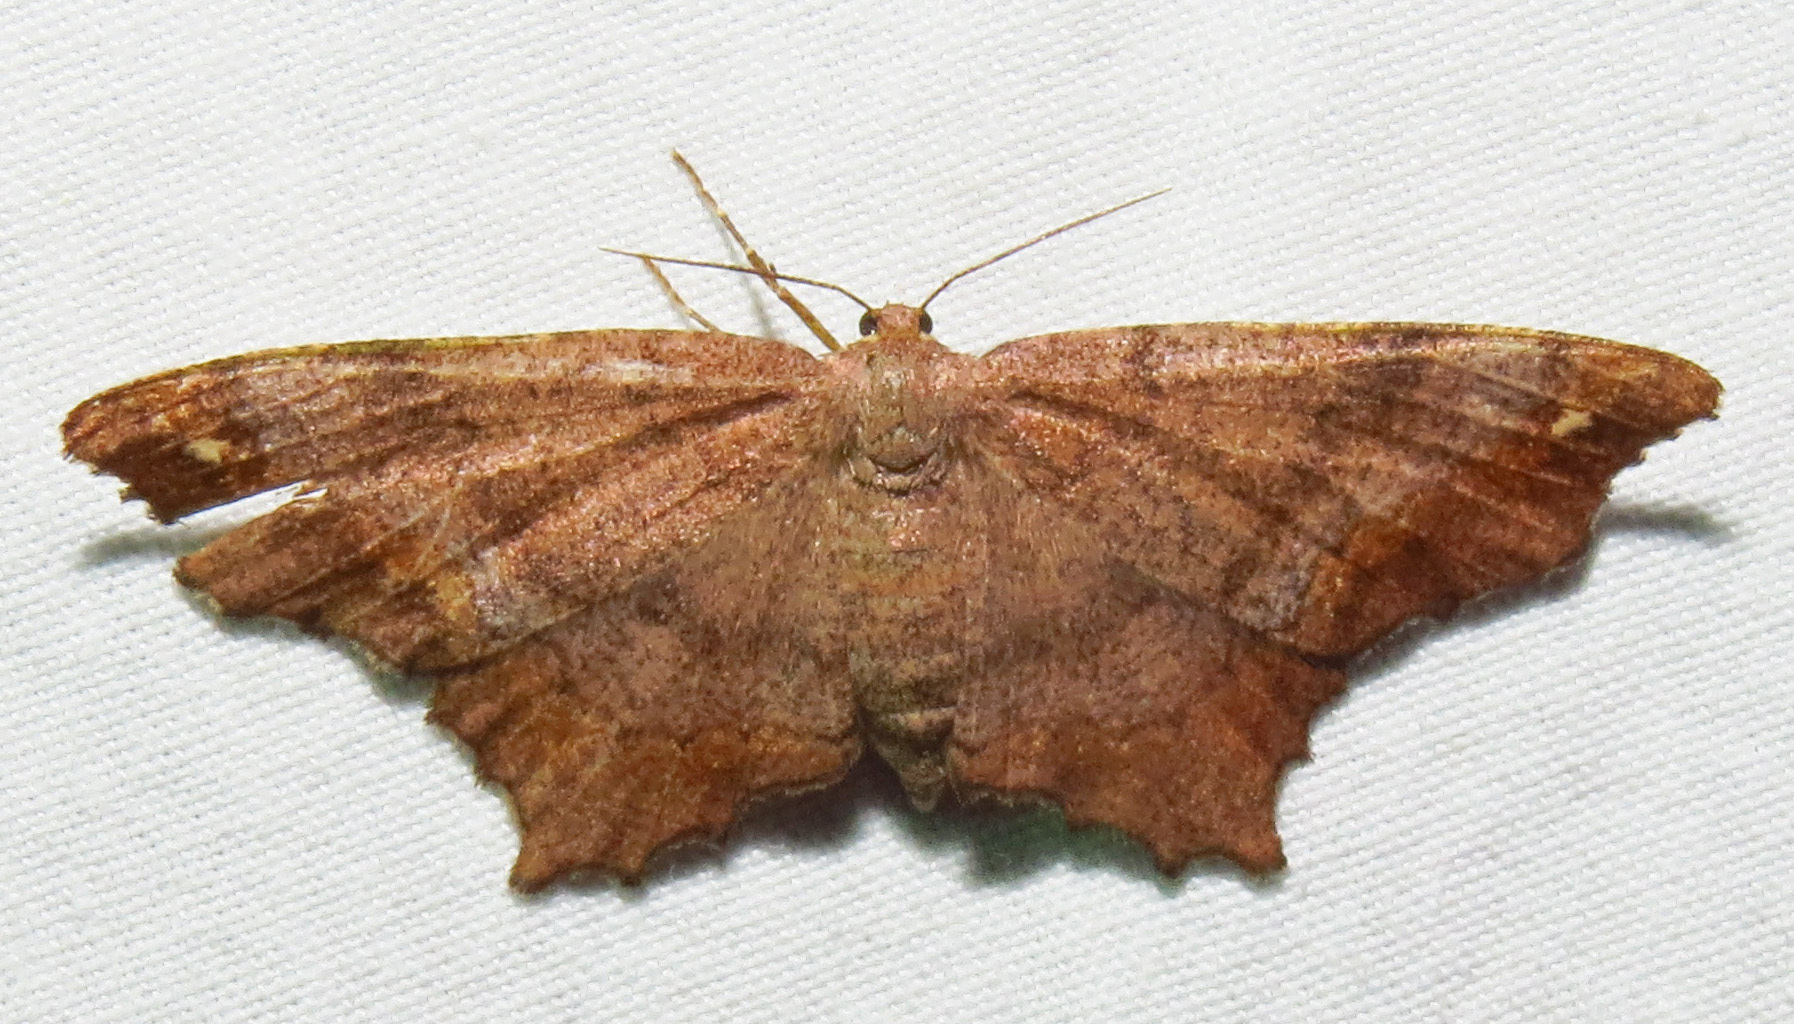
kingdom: Animalia
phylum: Arthropoda
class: Insecta
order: Lepidoptera
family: Geometridae
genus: Hypagyrtis
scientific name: Hypagyrtis unipunctata
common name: One-spotted variant
